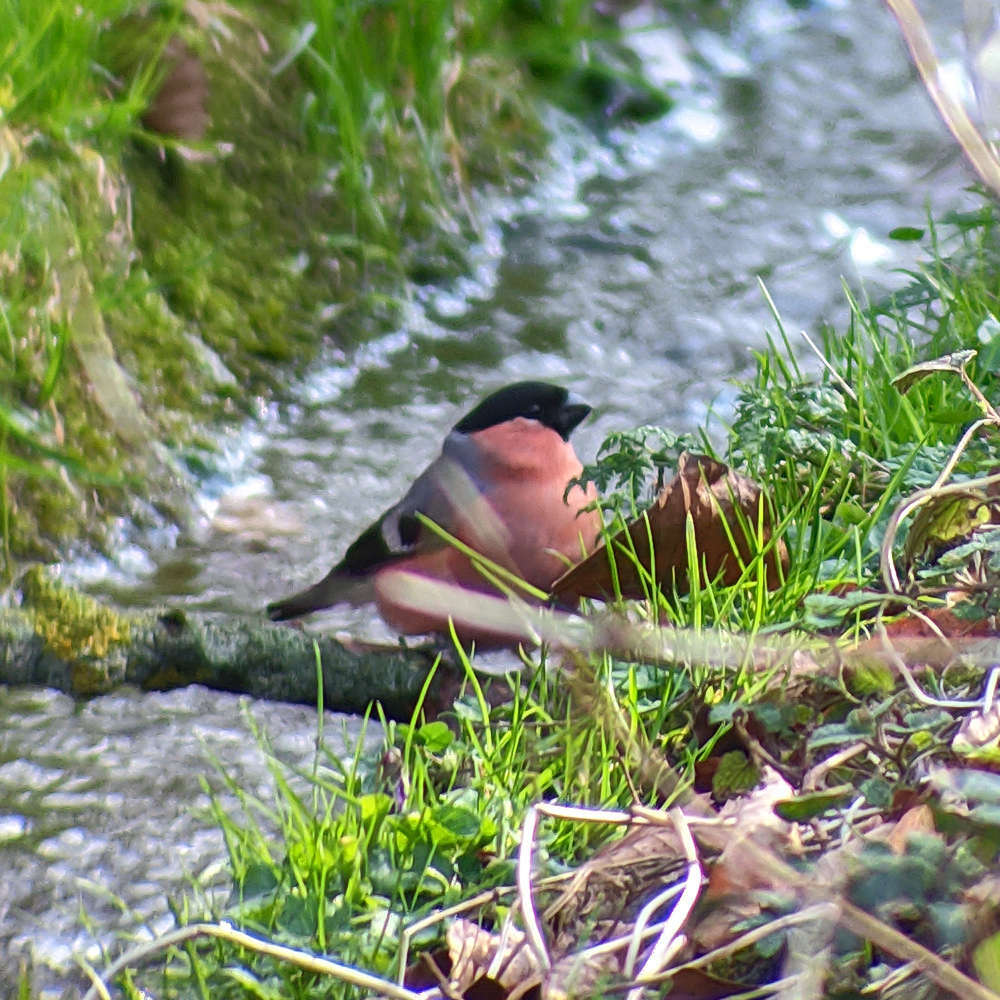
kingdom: Animalia
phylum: Chordata
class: Aves
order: Passeriformes
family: Fringillidae
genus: Pyrrhula
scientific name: Pyrrhula pyrrhula
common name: Eurasian bullfinch
